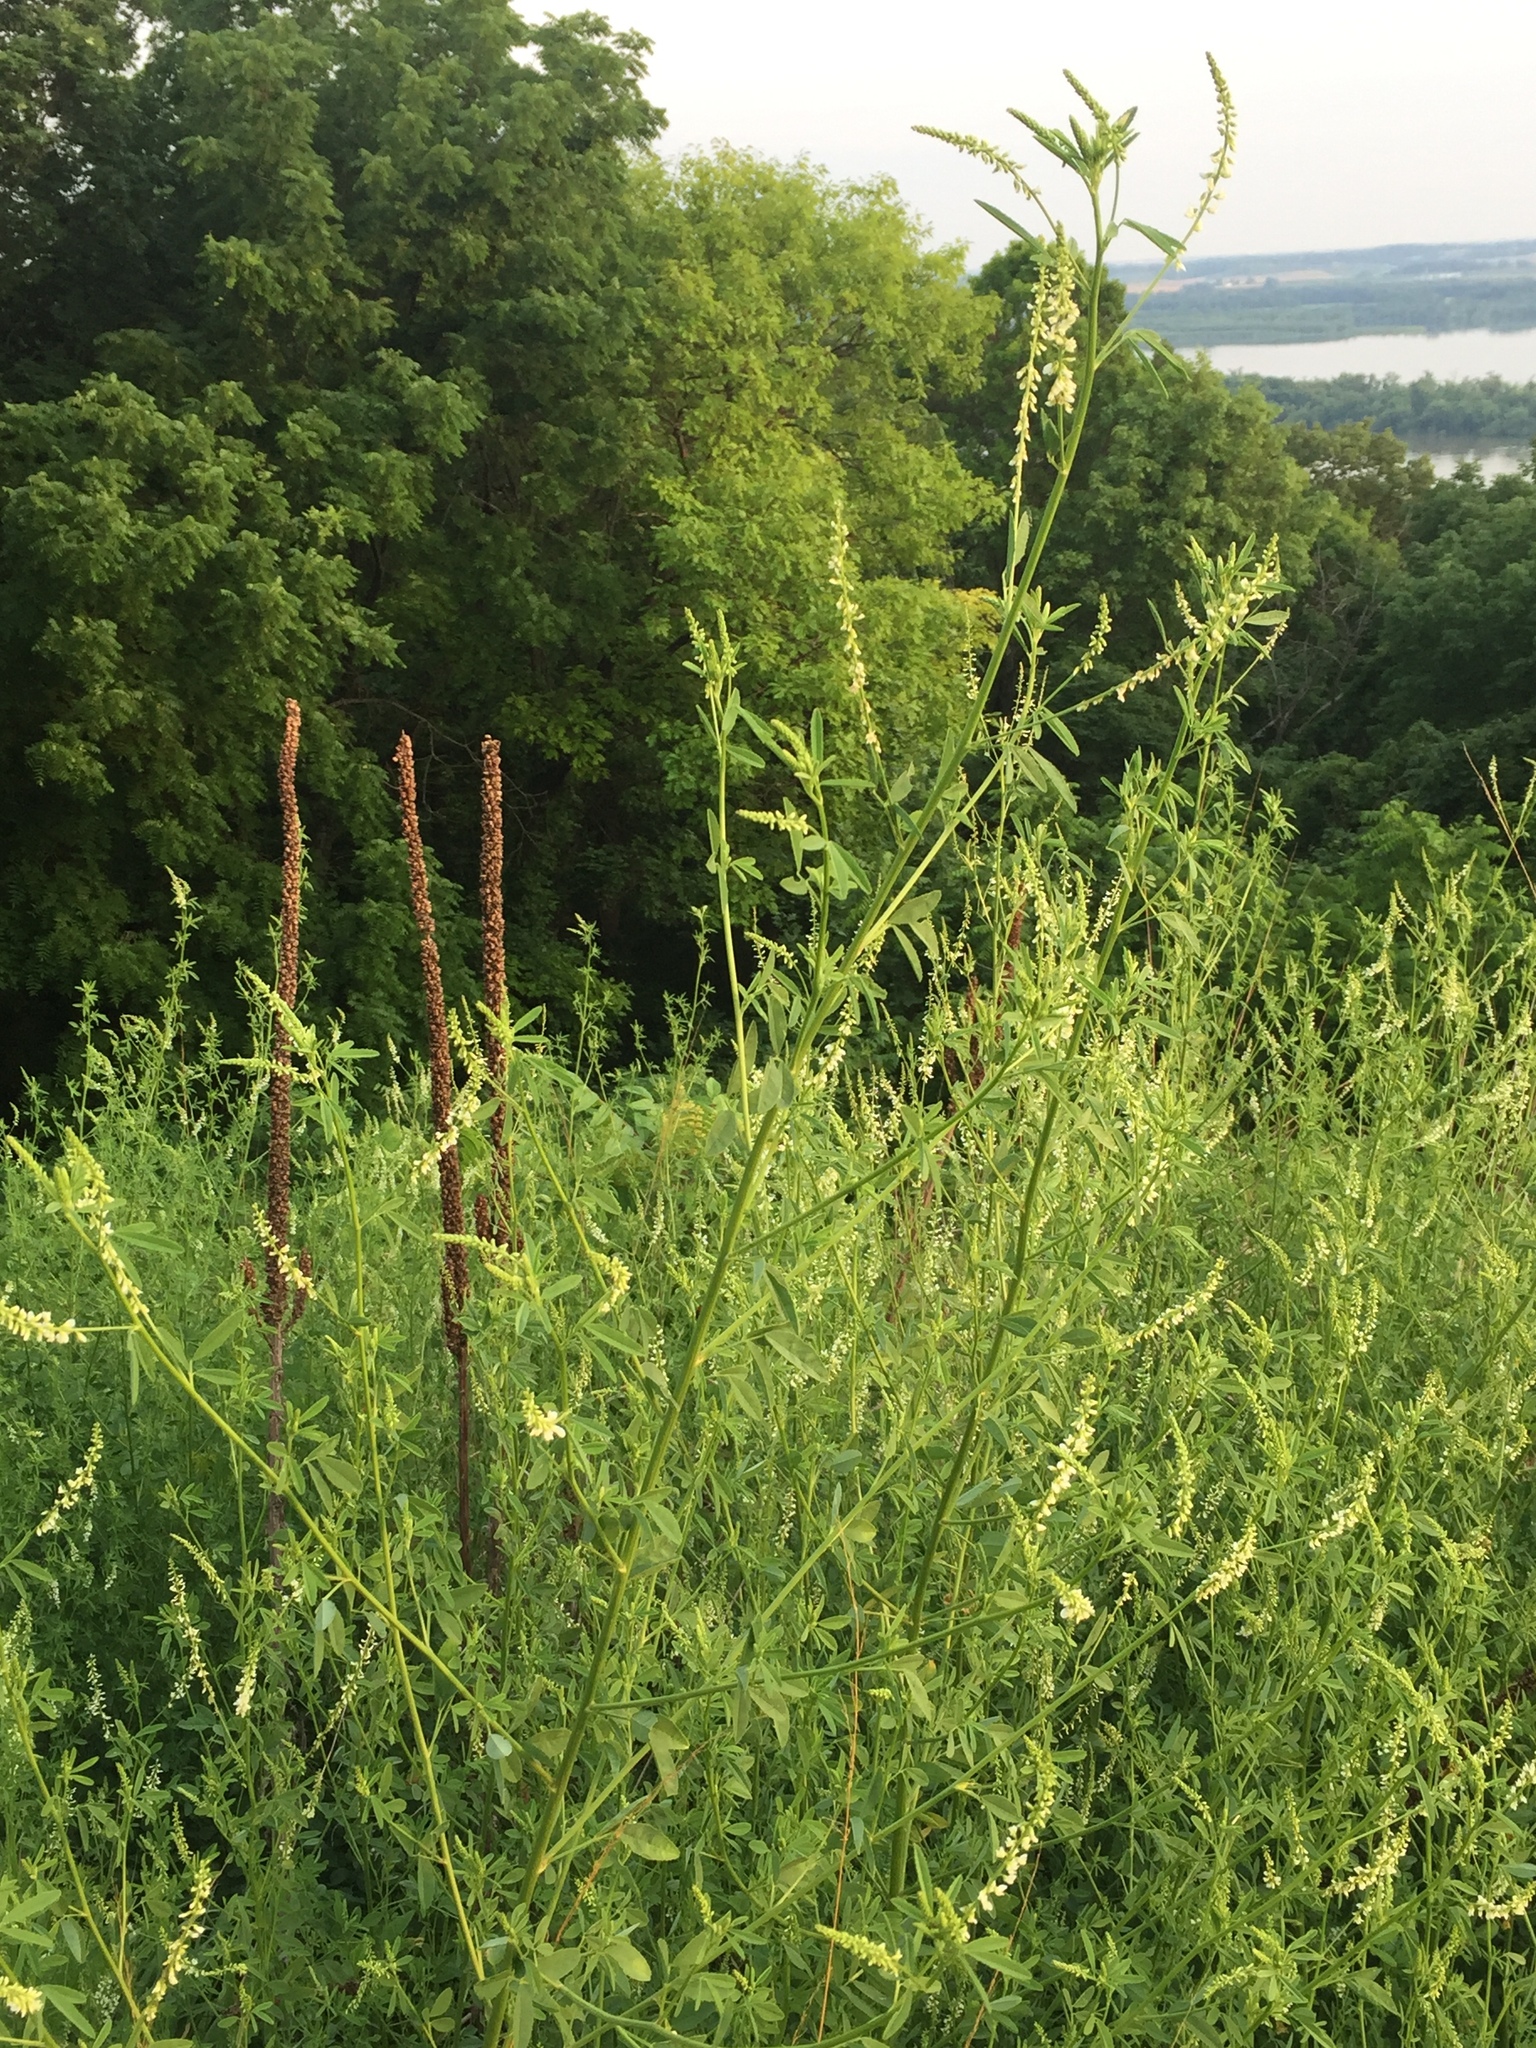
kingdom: Plantae
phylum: Tracheophyta
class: Magnoliopsida
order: Fabales
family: Fabaceae
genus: Melilotus
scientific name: Melilotus albus
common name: White melilot
